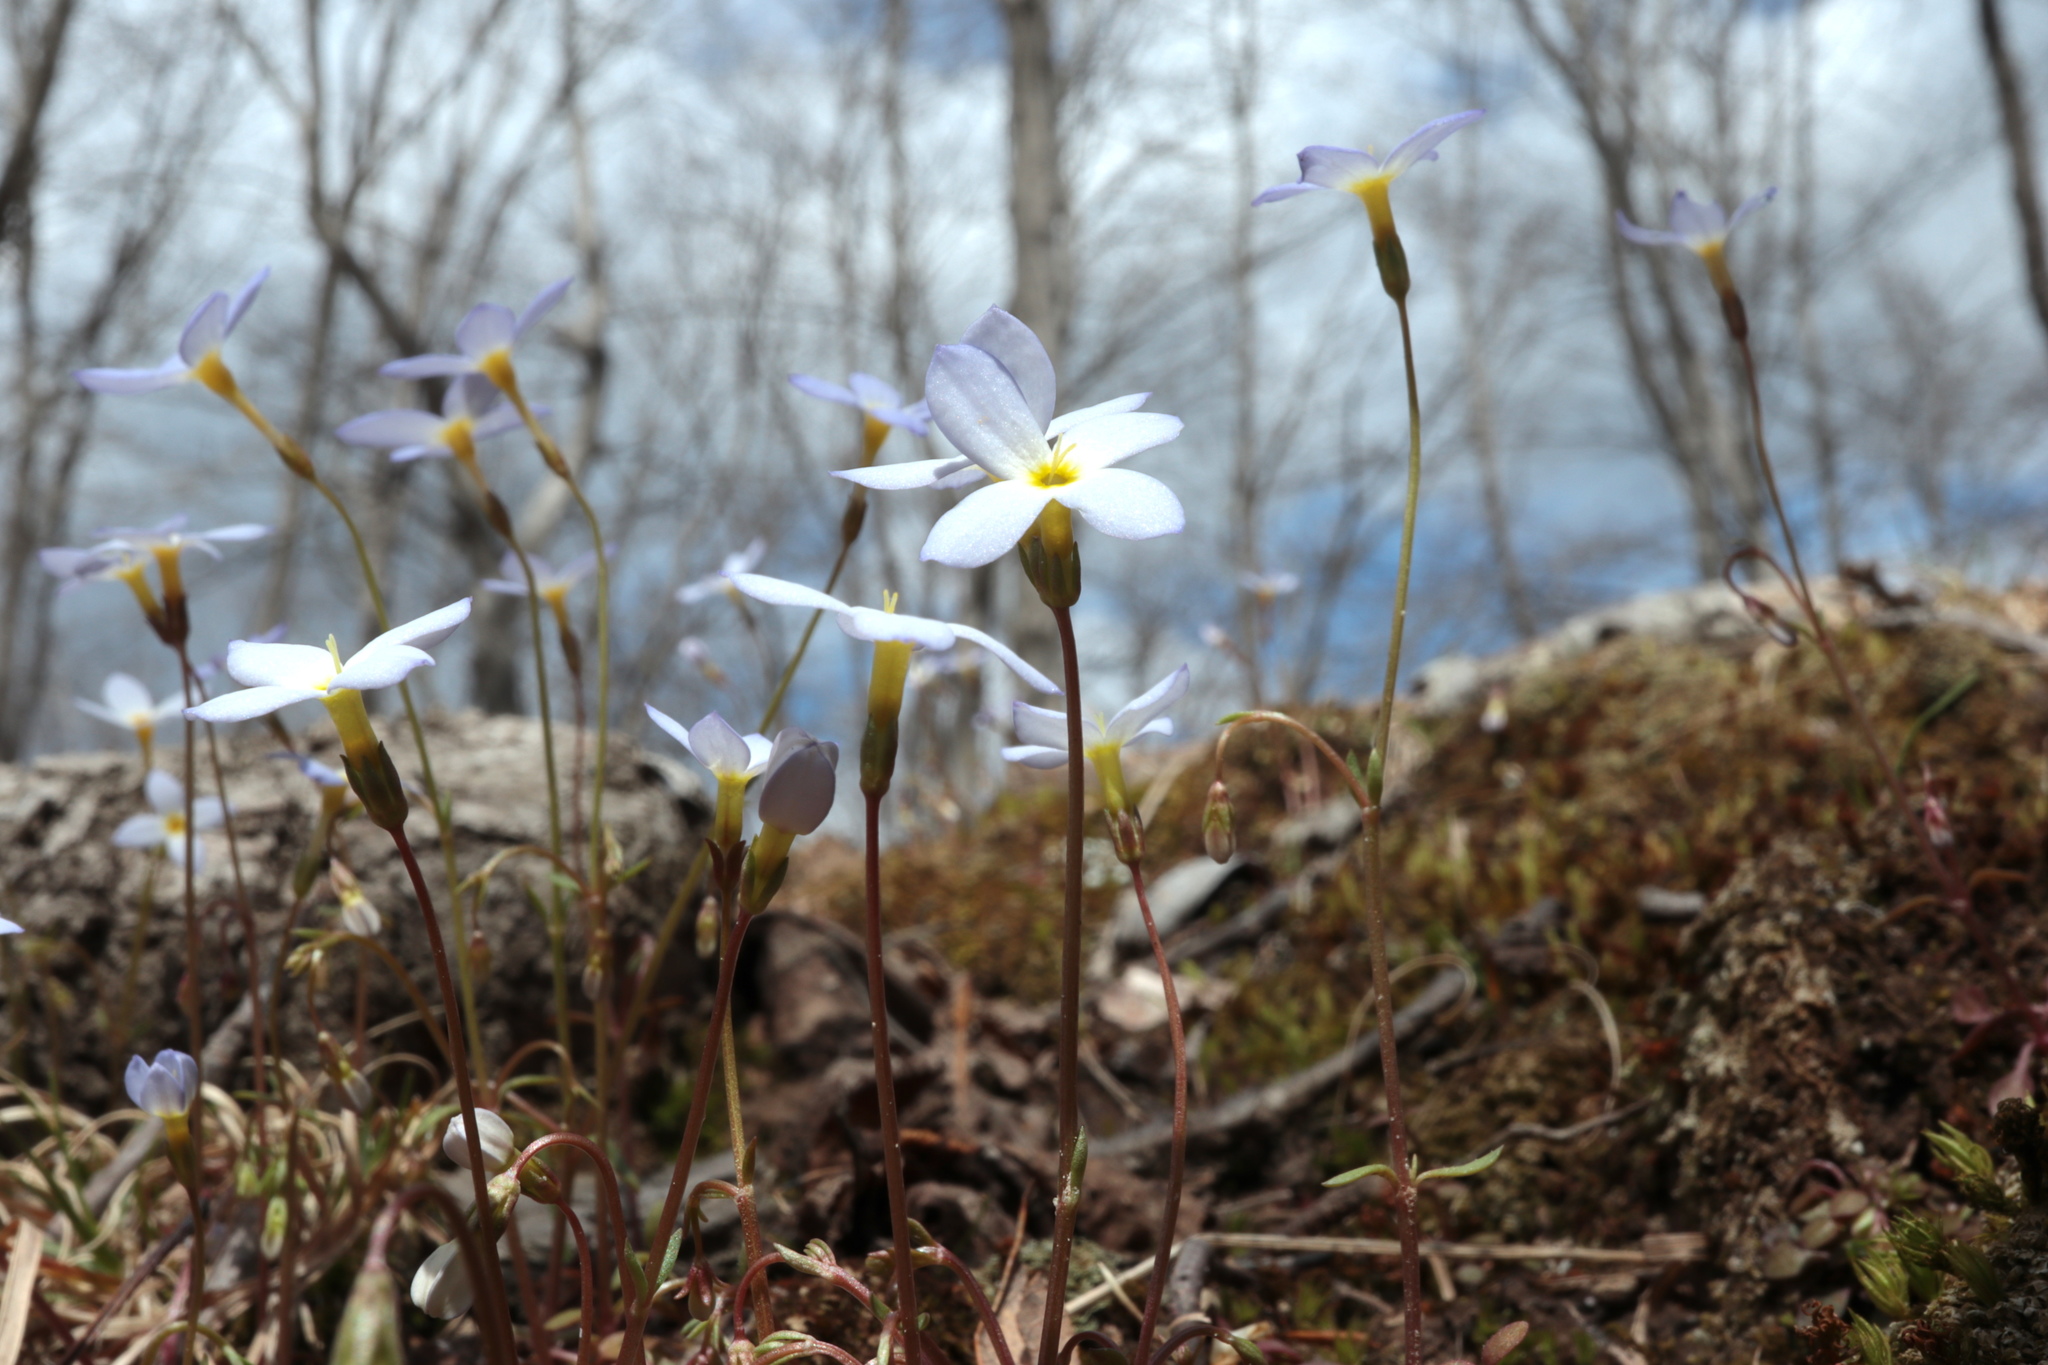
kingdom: Plantae
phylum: Tracheophyta
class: Magnoliopsida
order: Gentianales
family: Rubiaceae
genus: Houstonia
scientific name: Houstonia caerulea
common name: Bluets
